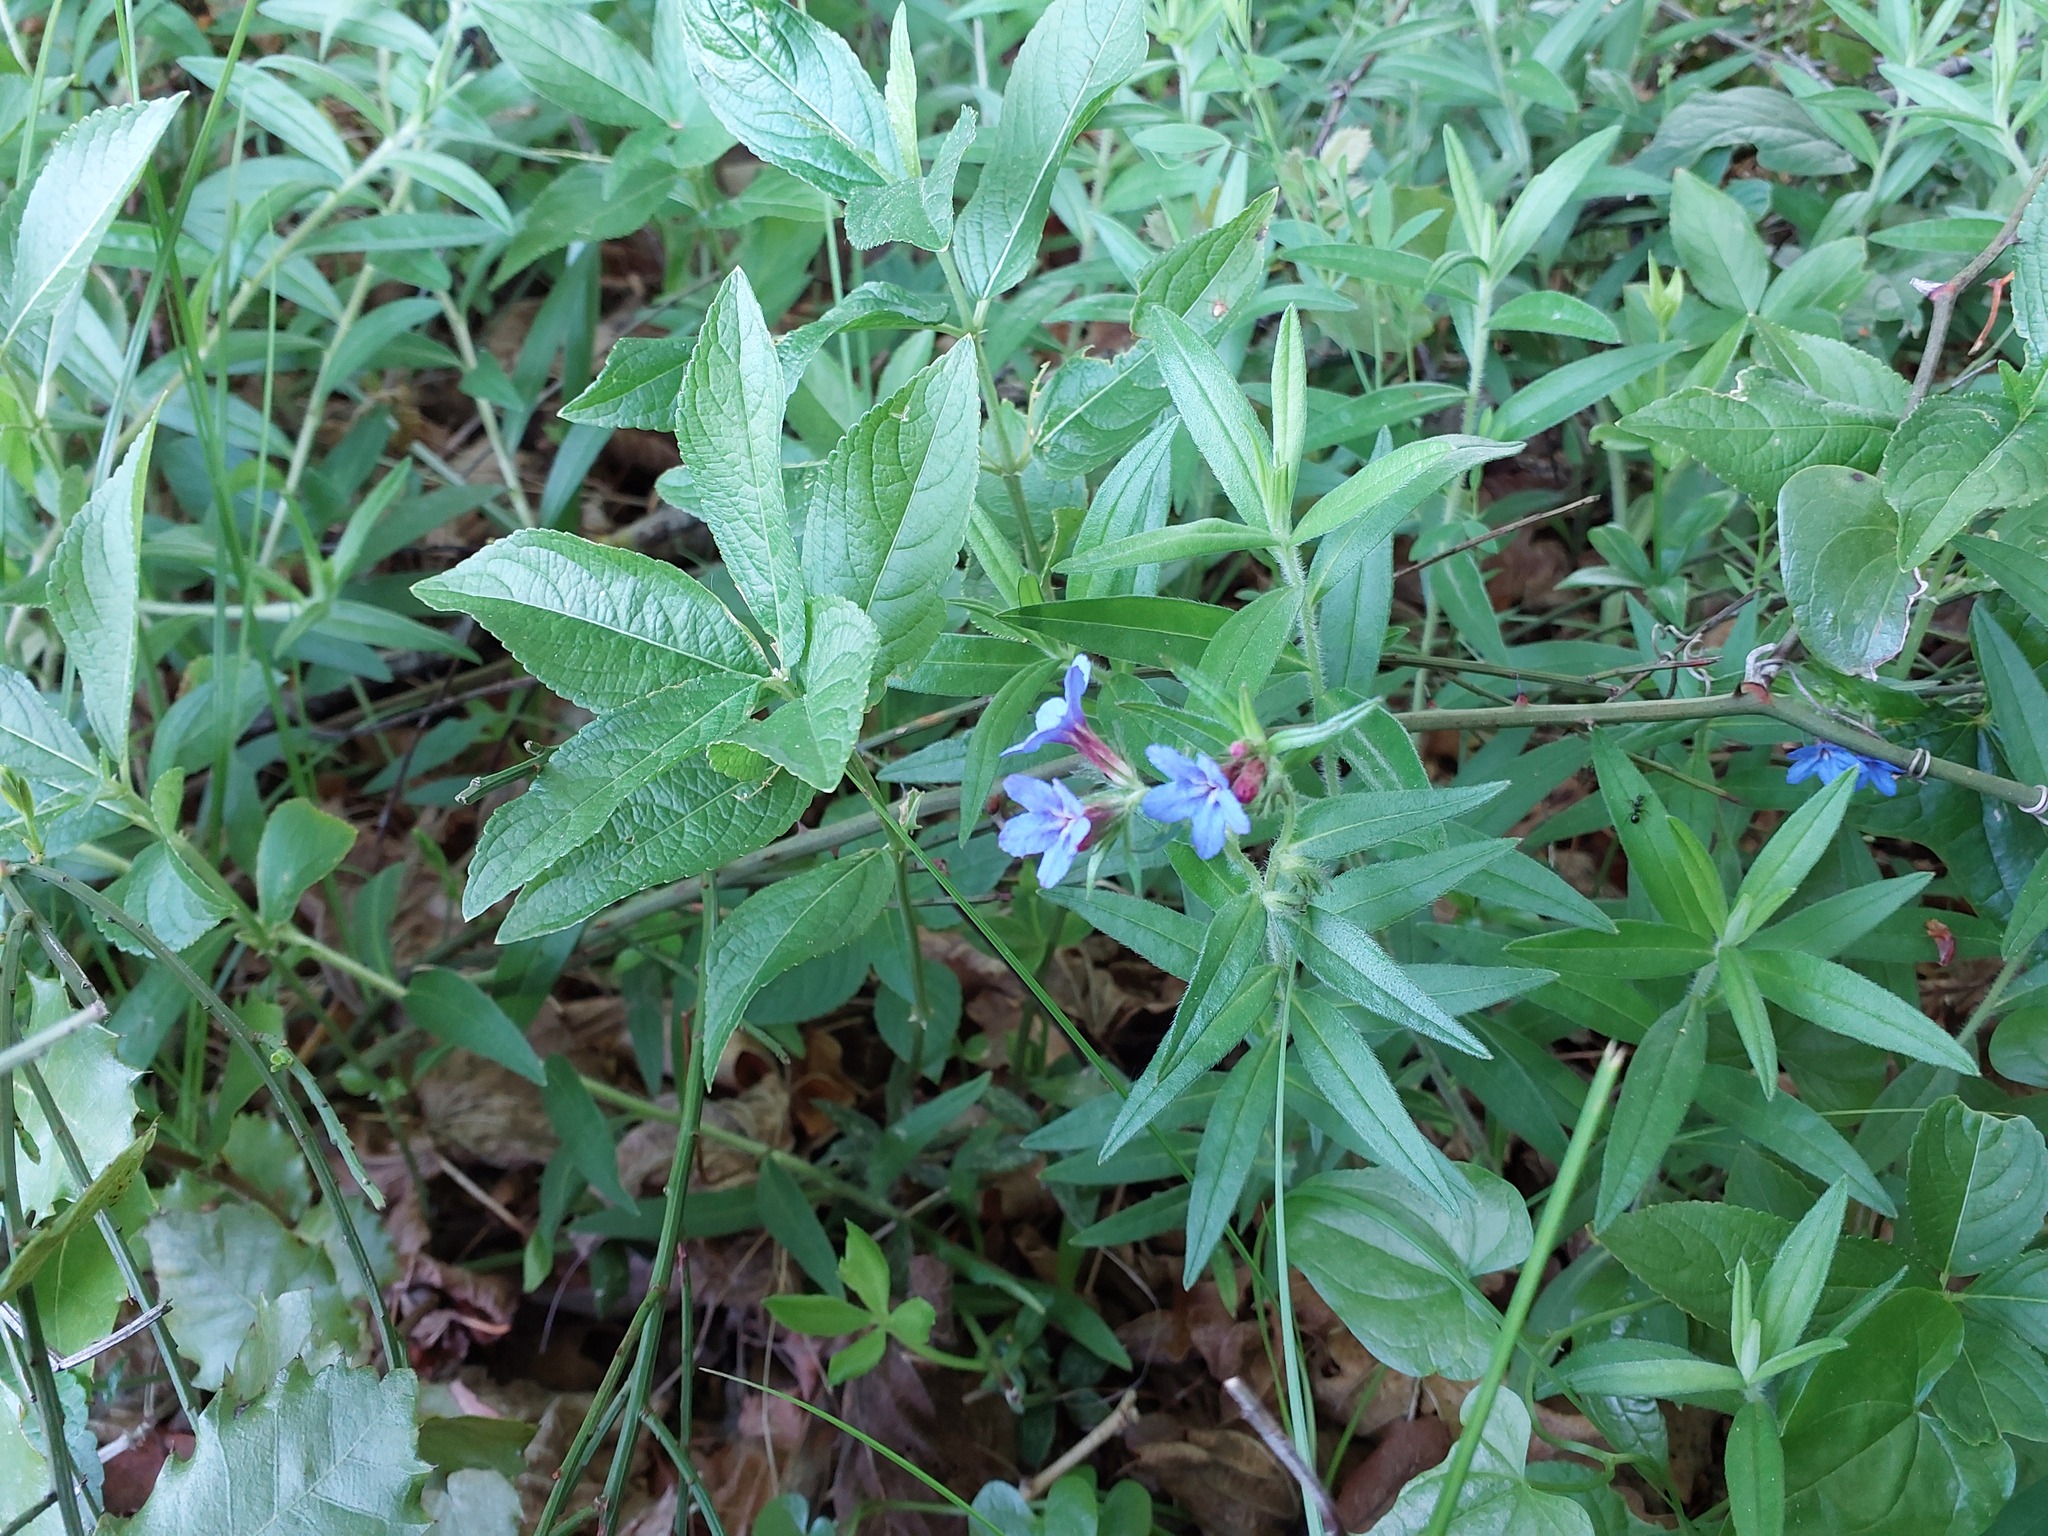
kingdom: Plantae
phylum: Tracheophyta
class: Magnoliopsida
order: Boraginales
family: Boraginaceae
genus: Aegonychon
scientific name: Aegonychon purpurocaeruleum
